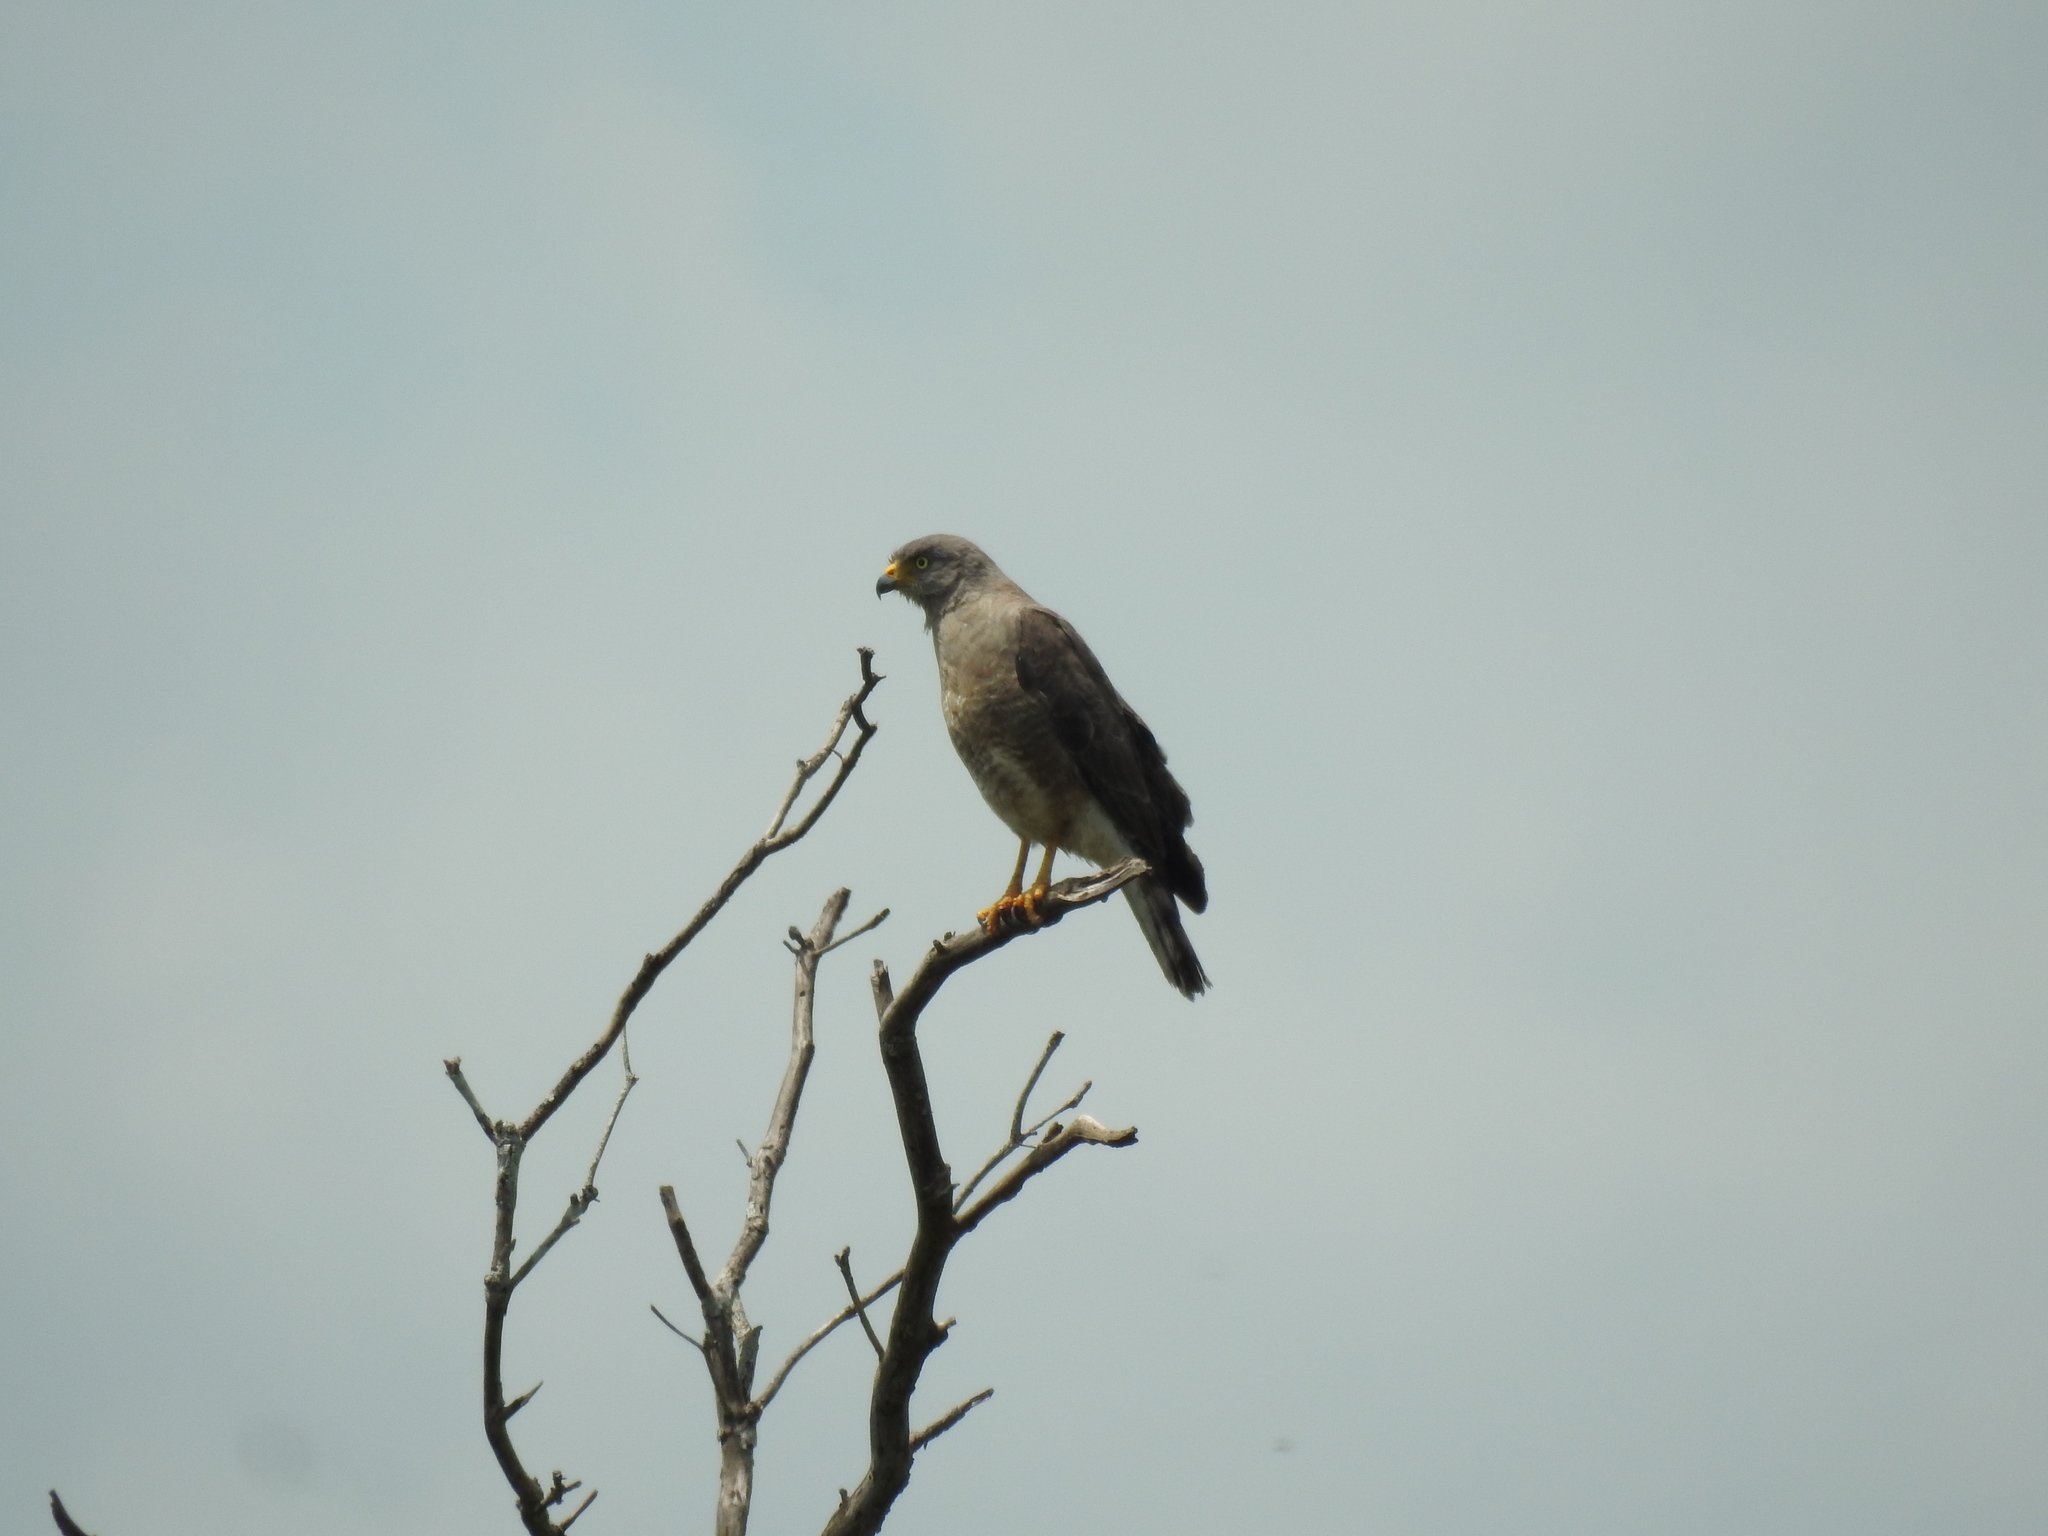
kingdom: Animalia
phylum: Chordata
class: Aves
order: Accipitriformes
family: Accipitridae
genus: Rupornis
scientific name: Rupornis magnirostris
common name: Roadside hawk
